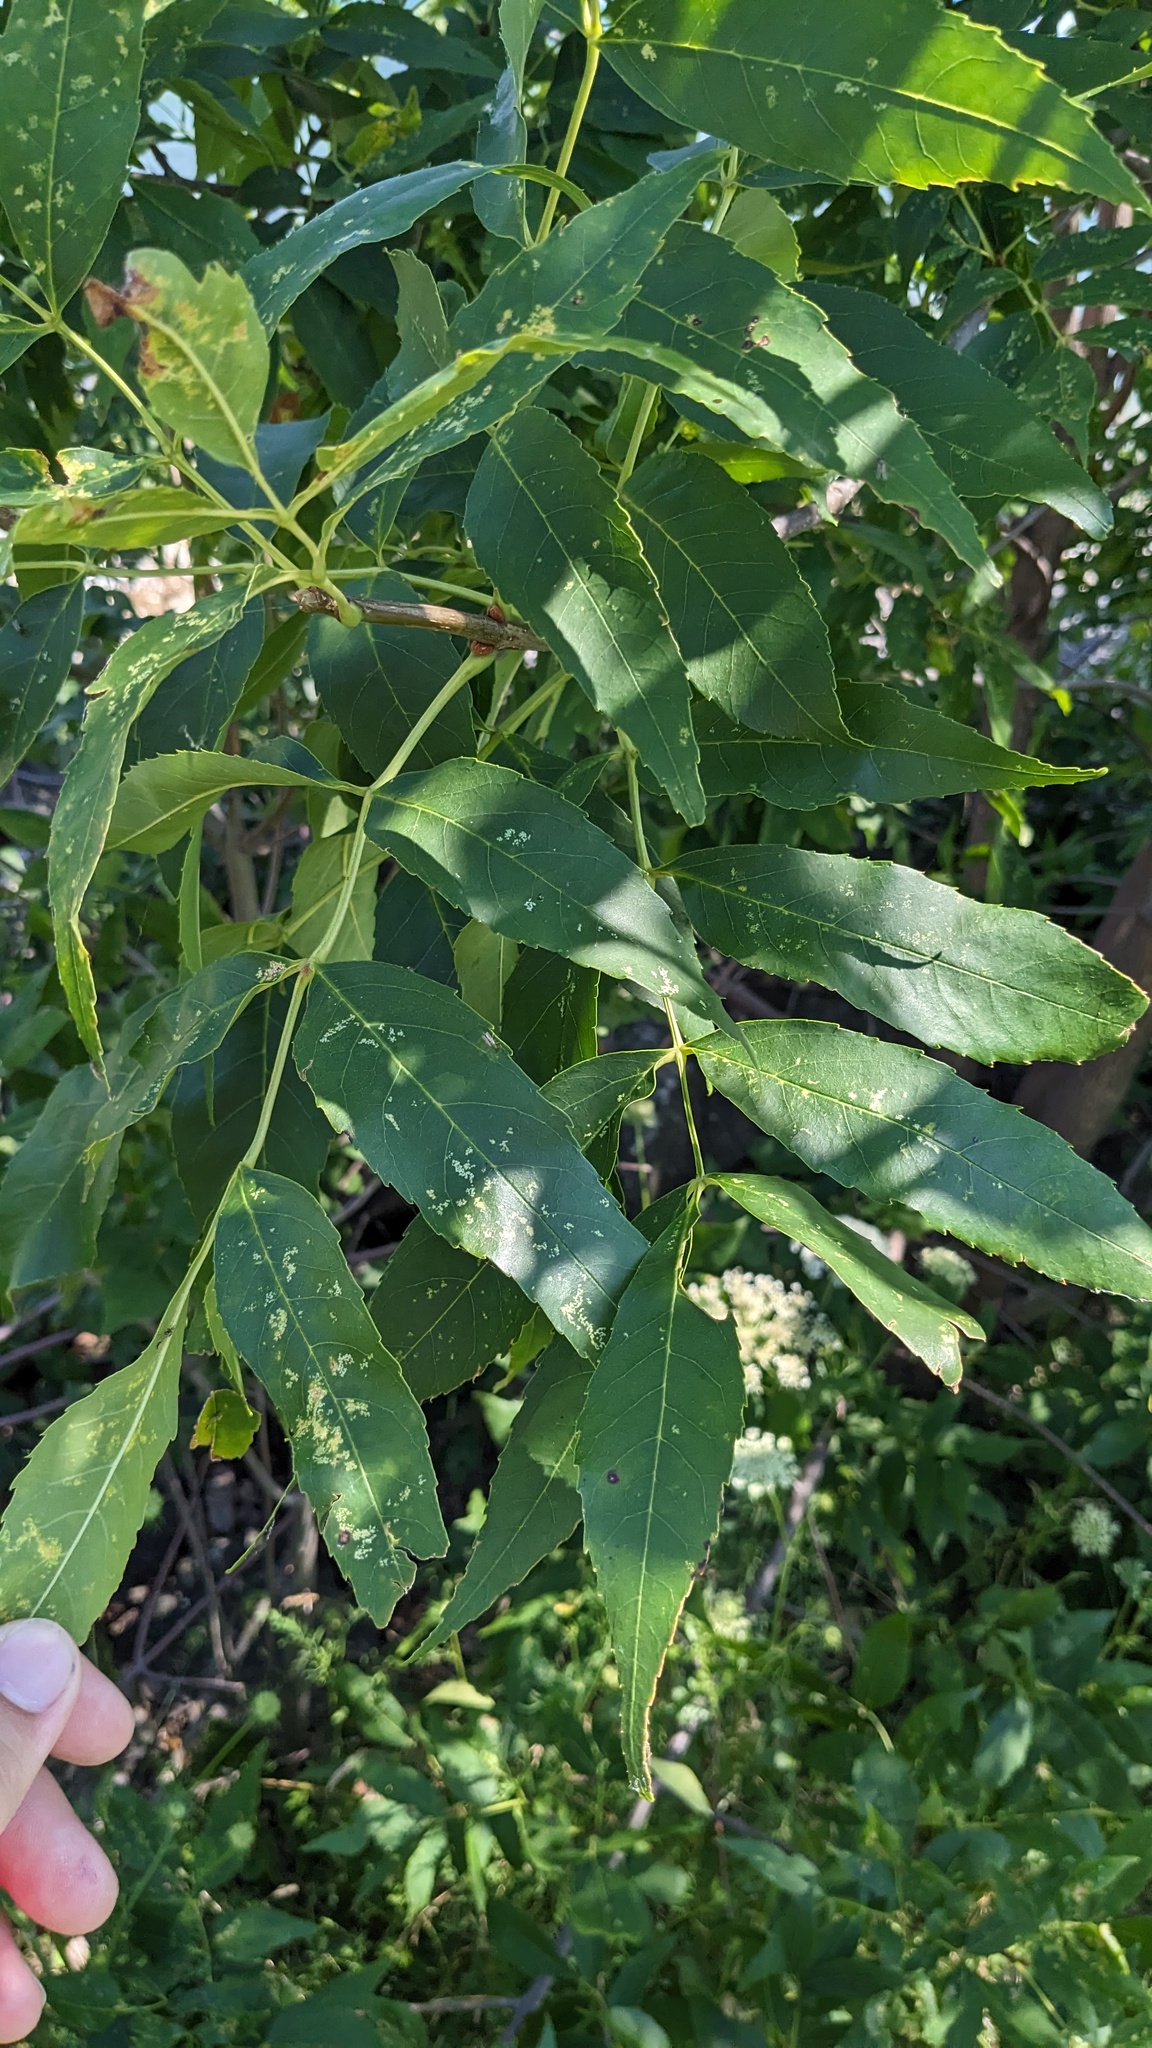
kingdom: Animalia
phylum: Arthropoda
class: Insecta
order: Hemiptera
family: Aphididae
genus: Prociphilus
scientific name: Prociphilus fraxinifolii
